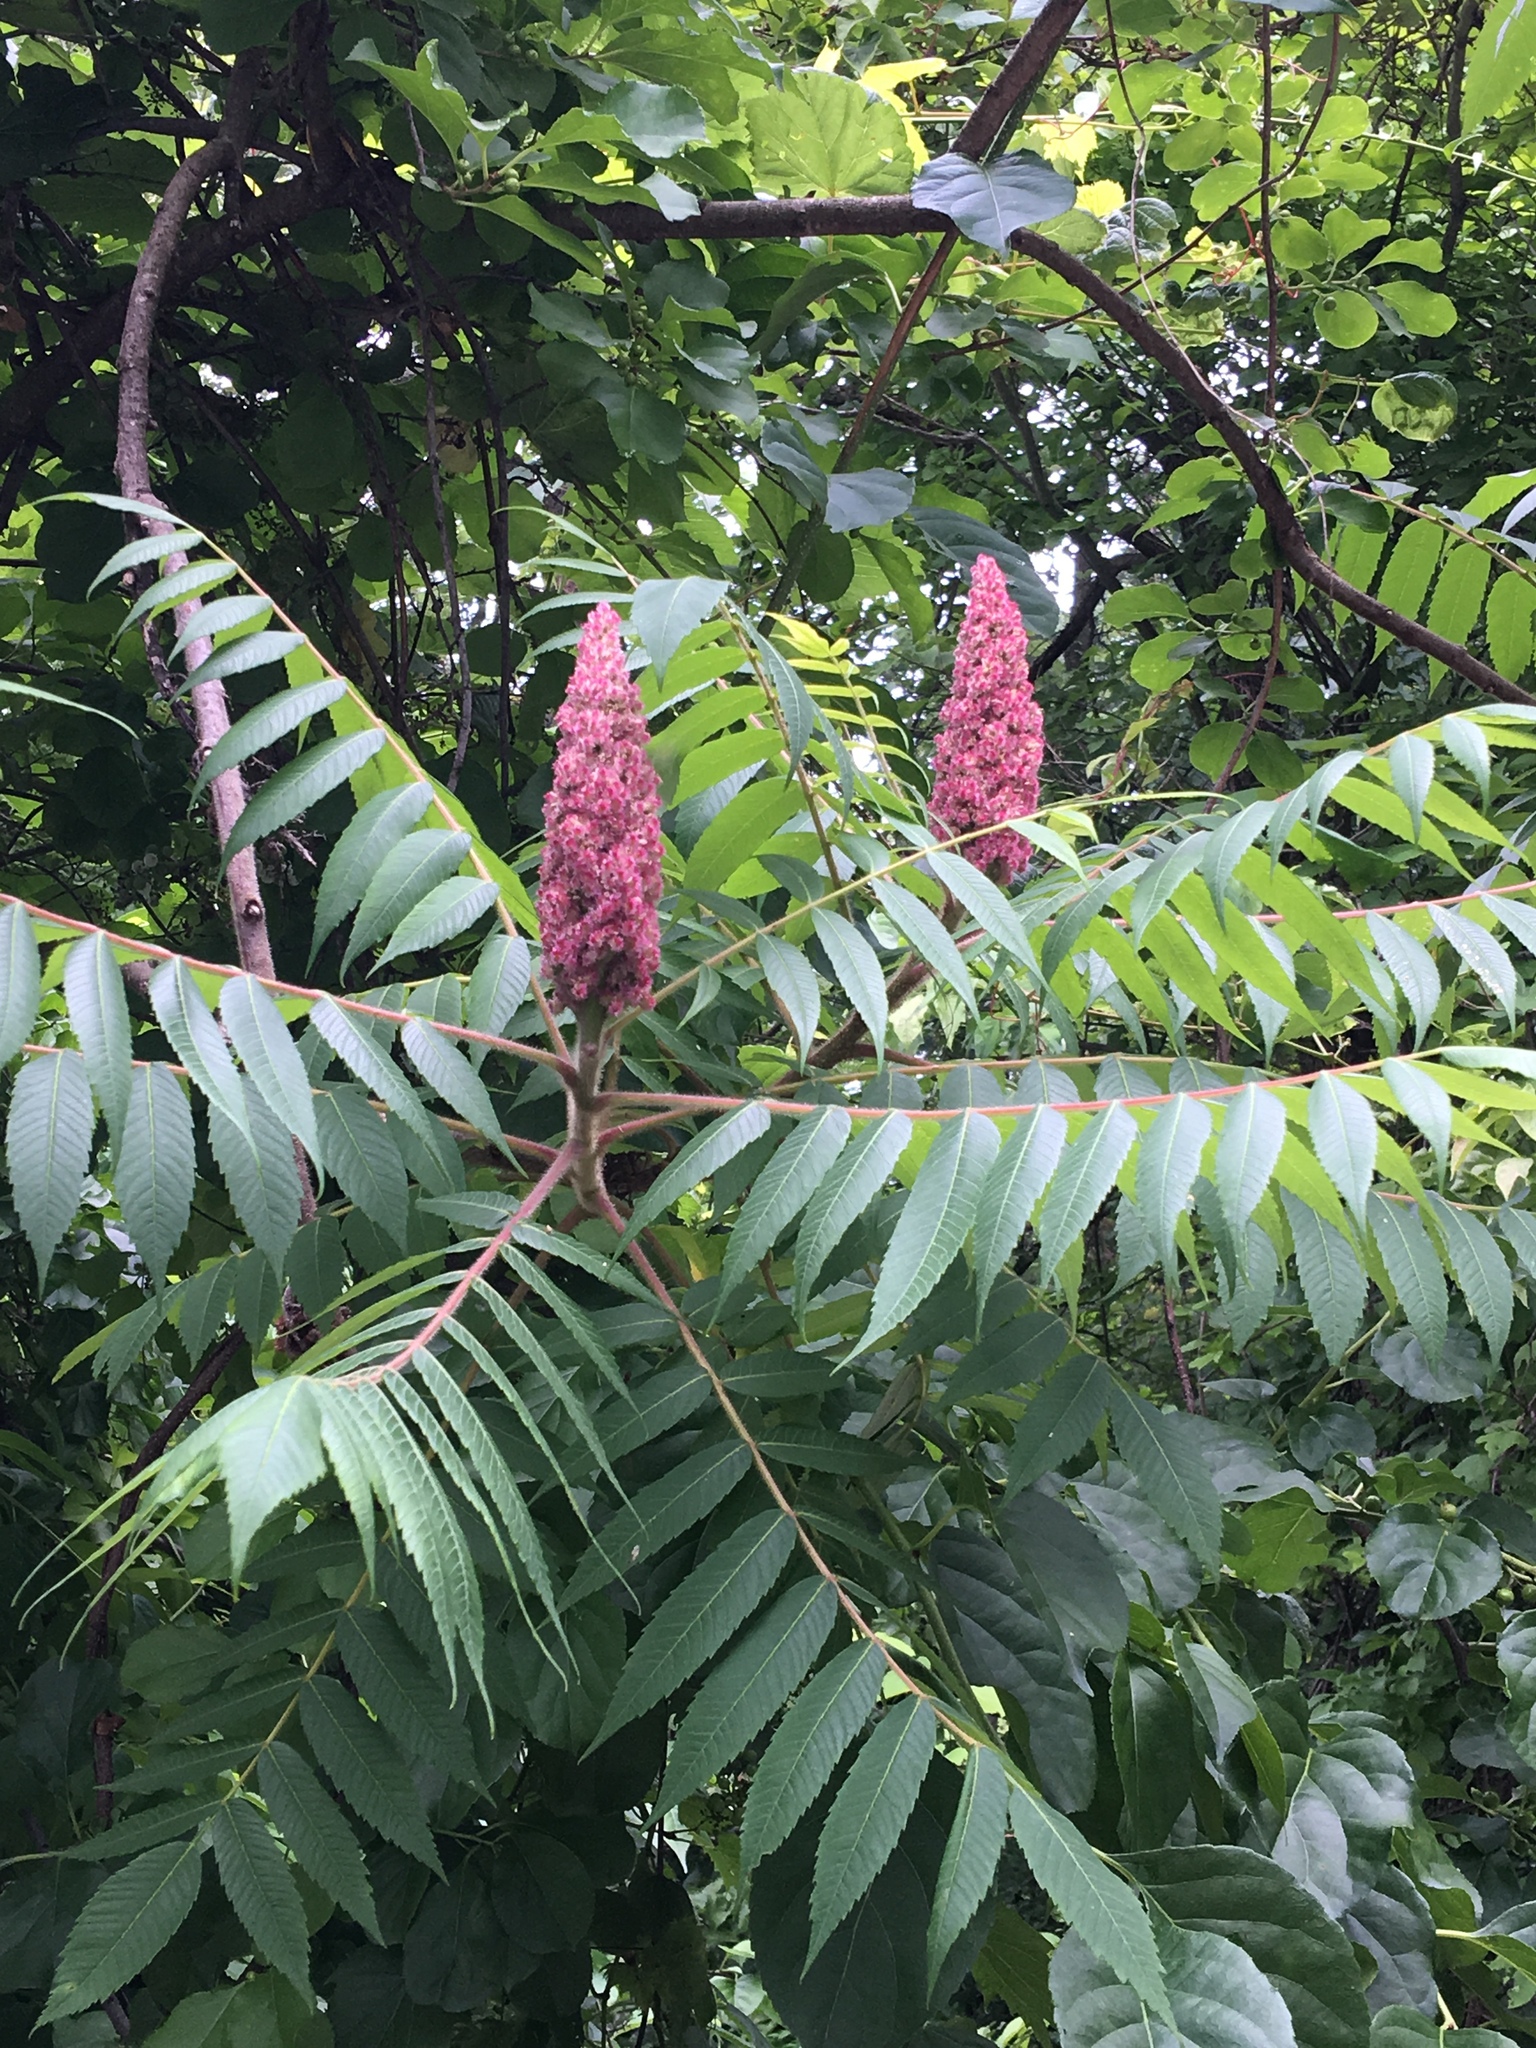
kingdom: Plantae
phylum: Tracheophyta
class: Magnoliopsida
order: Sapindales
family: Anacardiaceae
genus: Rhus
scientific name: Rhus typhina
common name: Staghorn sumac
